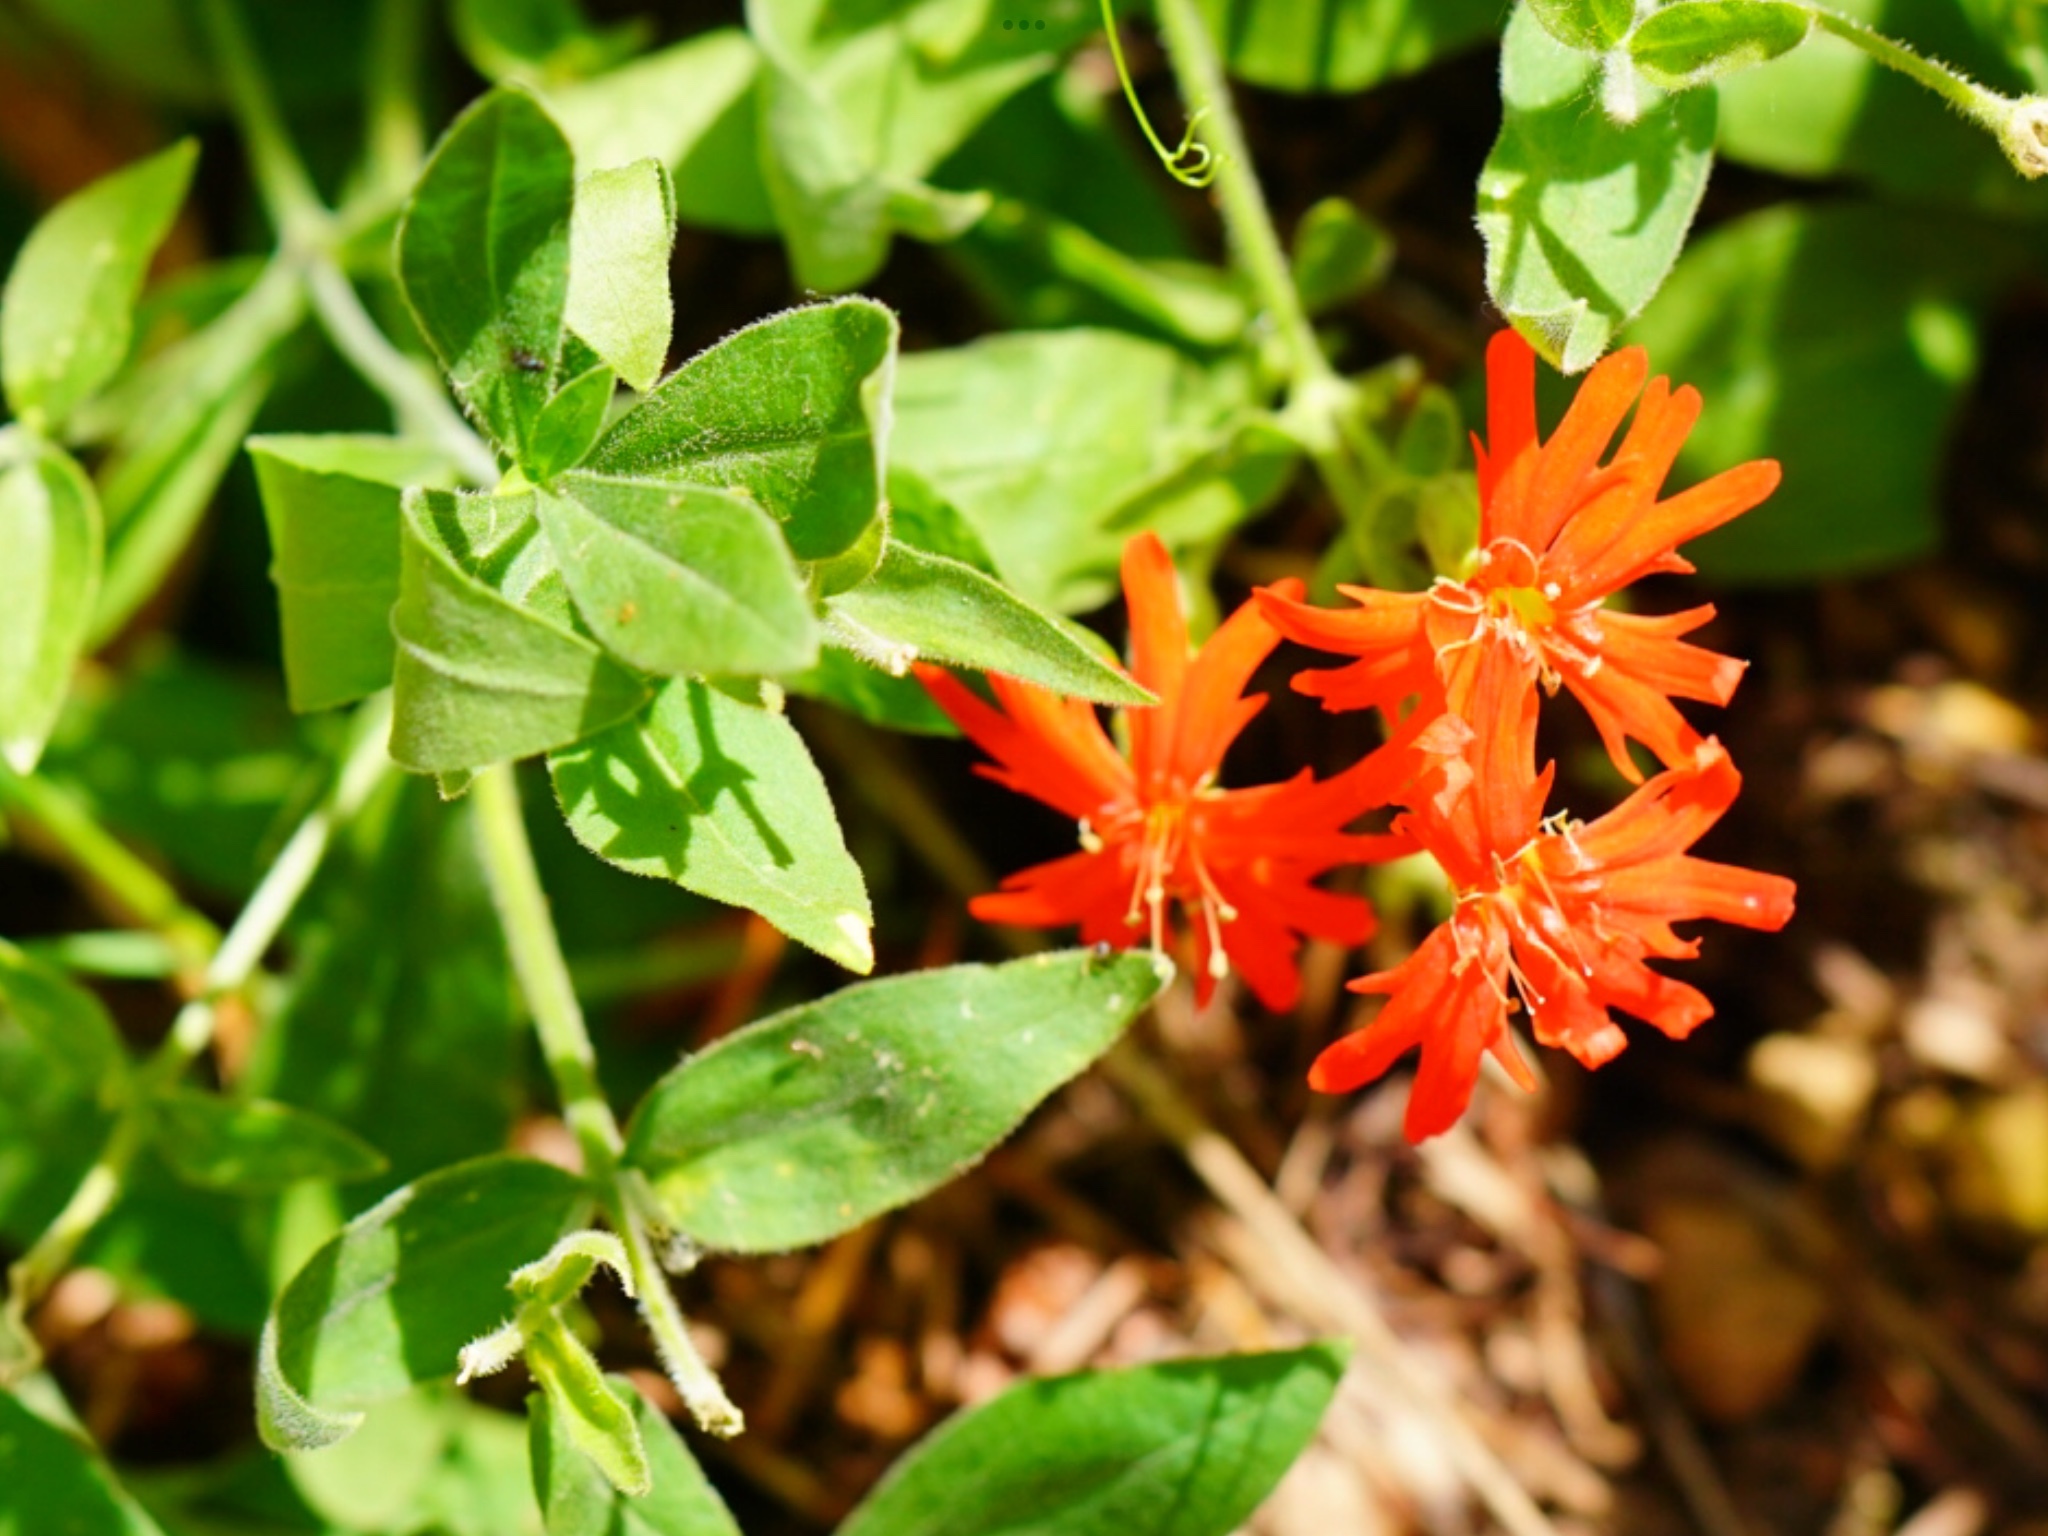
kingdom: Plantae
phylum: Tracheophyta
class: Magnoliopsida
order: Caryophyllales
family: Caryophyllaceae
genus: Silene
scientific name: Silene laciniata
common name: Indian-pink
